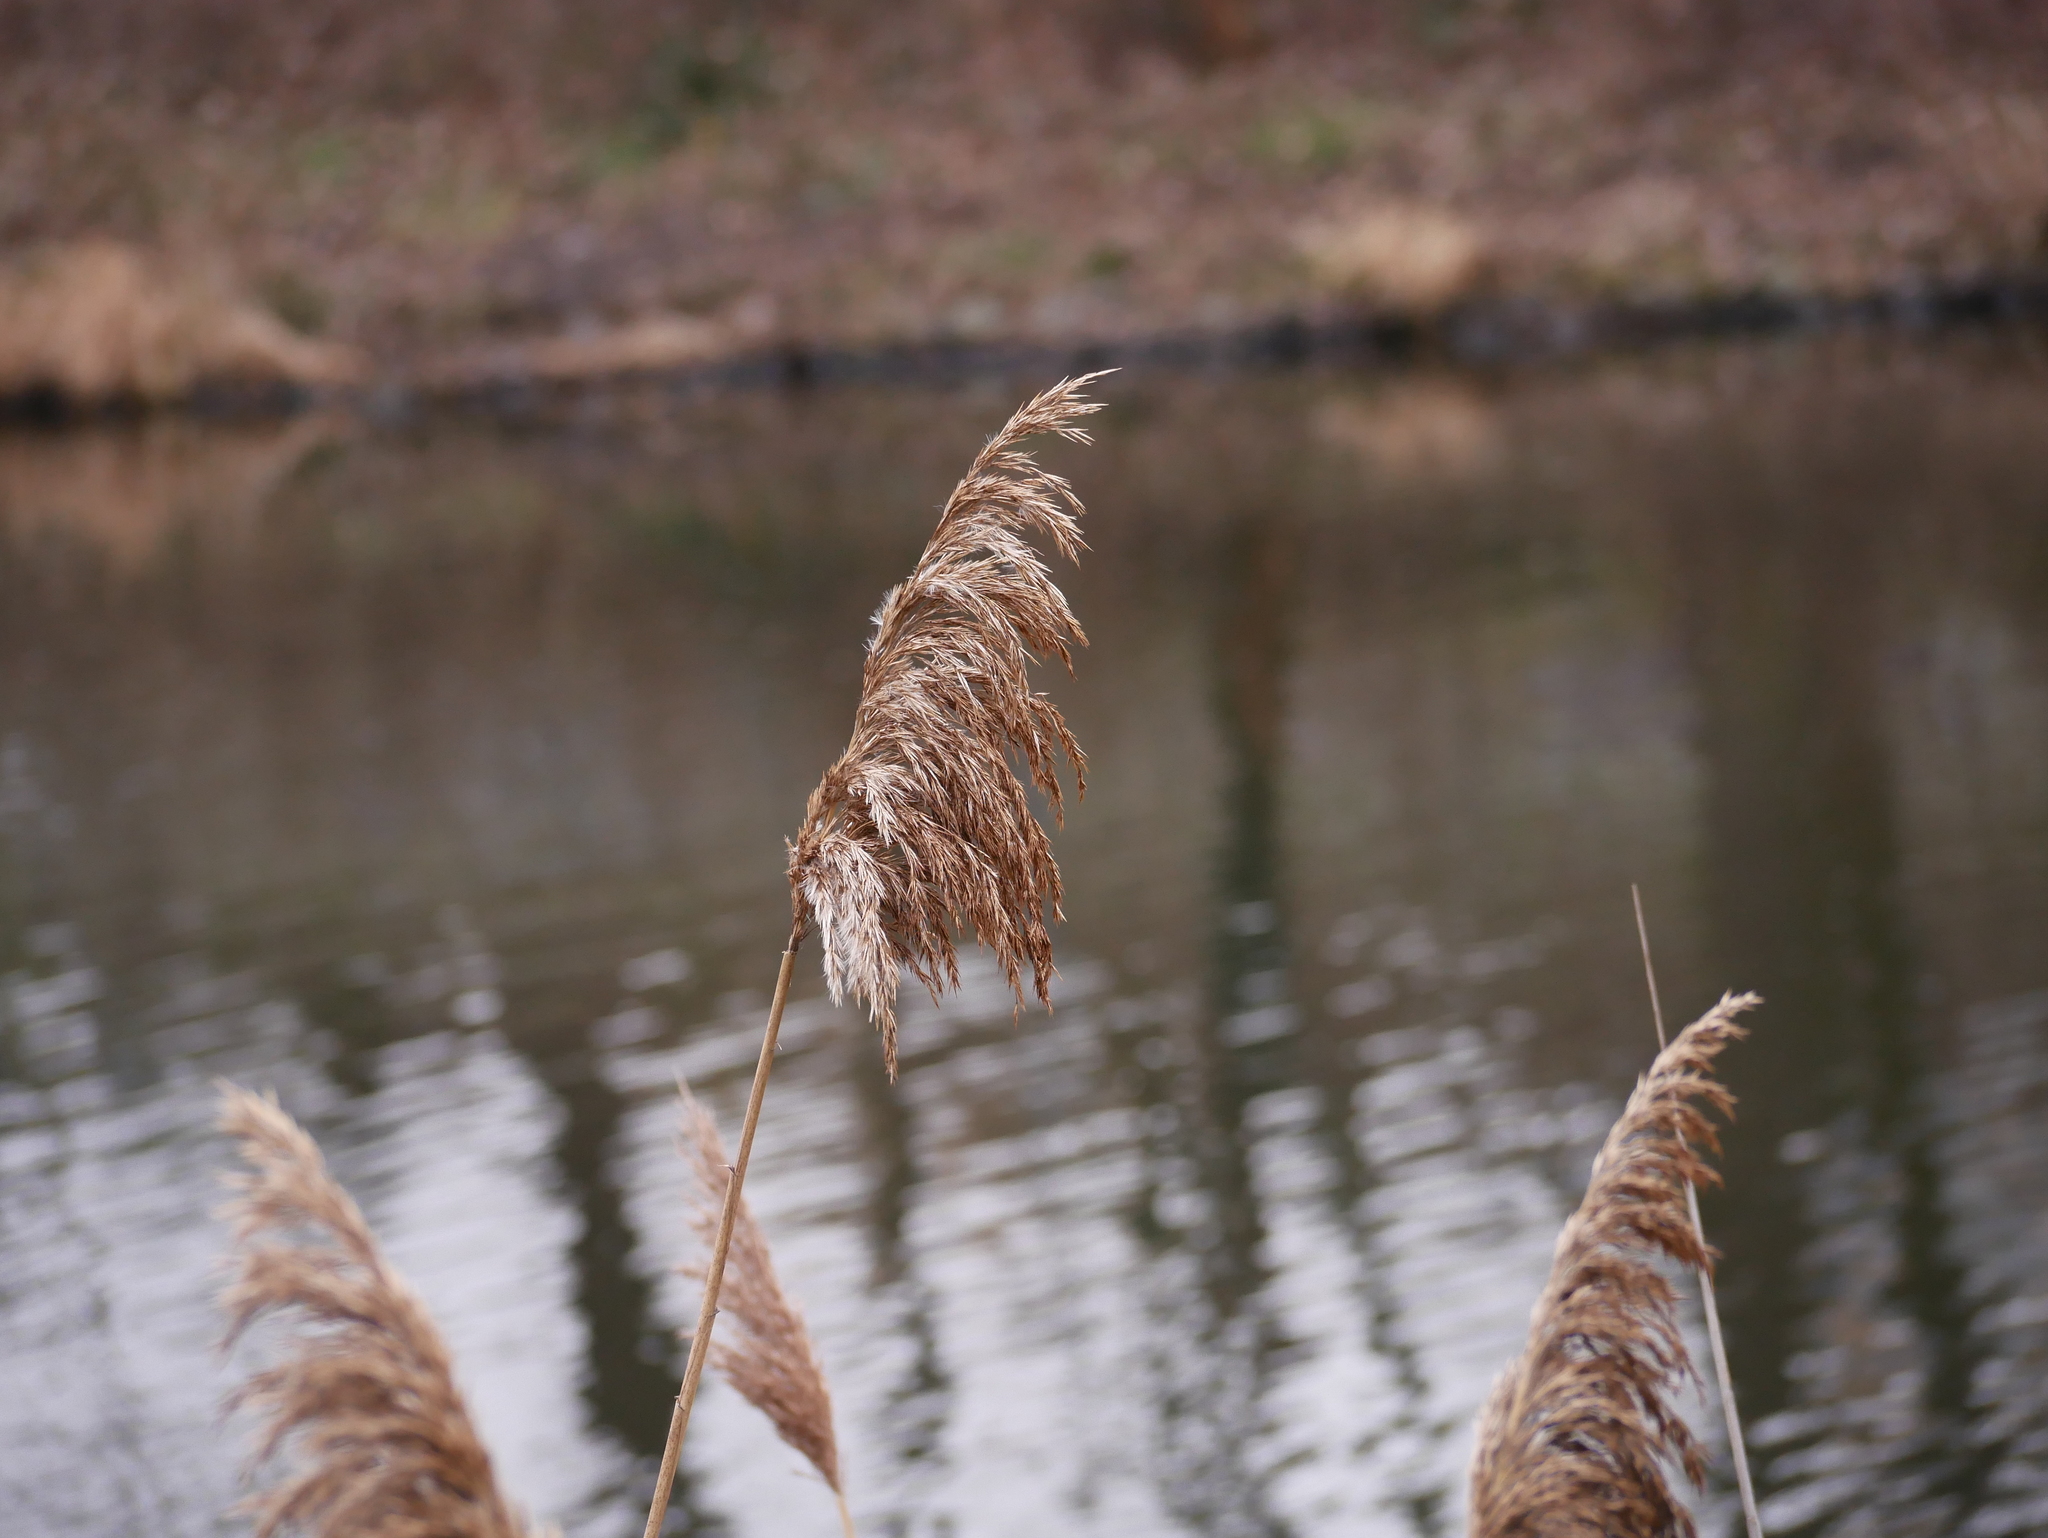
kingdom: Plantae
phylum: Tracheophyta
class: Liliopsida
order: Poales
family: Poaceae
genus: Phragmites
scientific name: Phragmites australis
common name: Common reed
